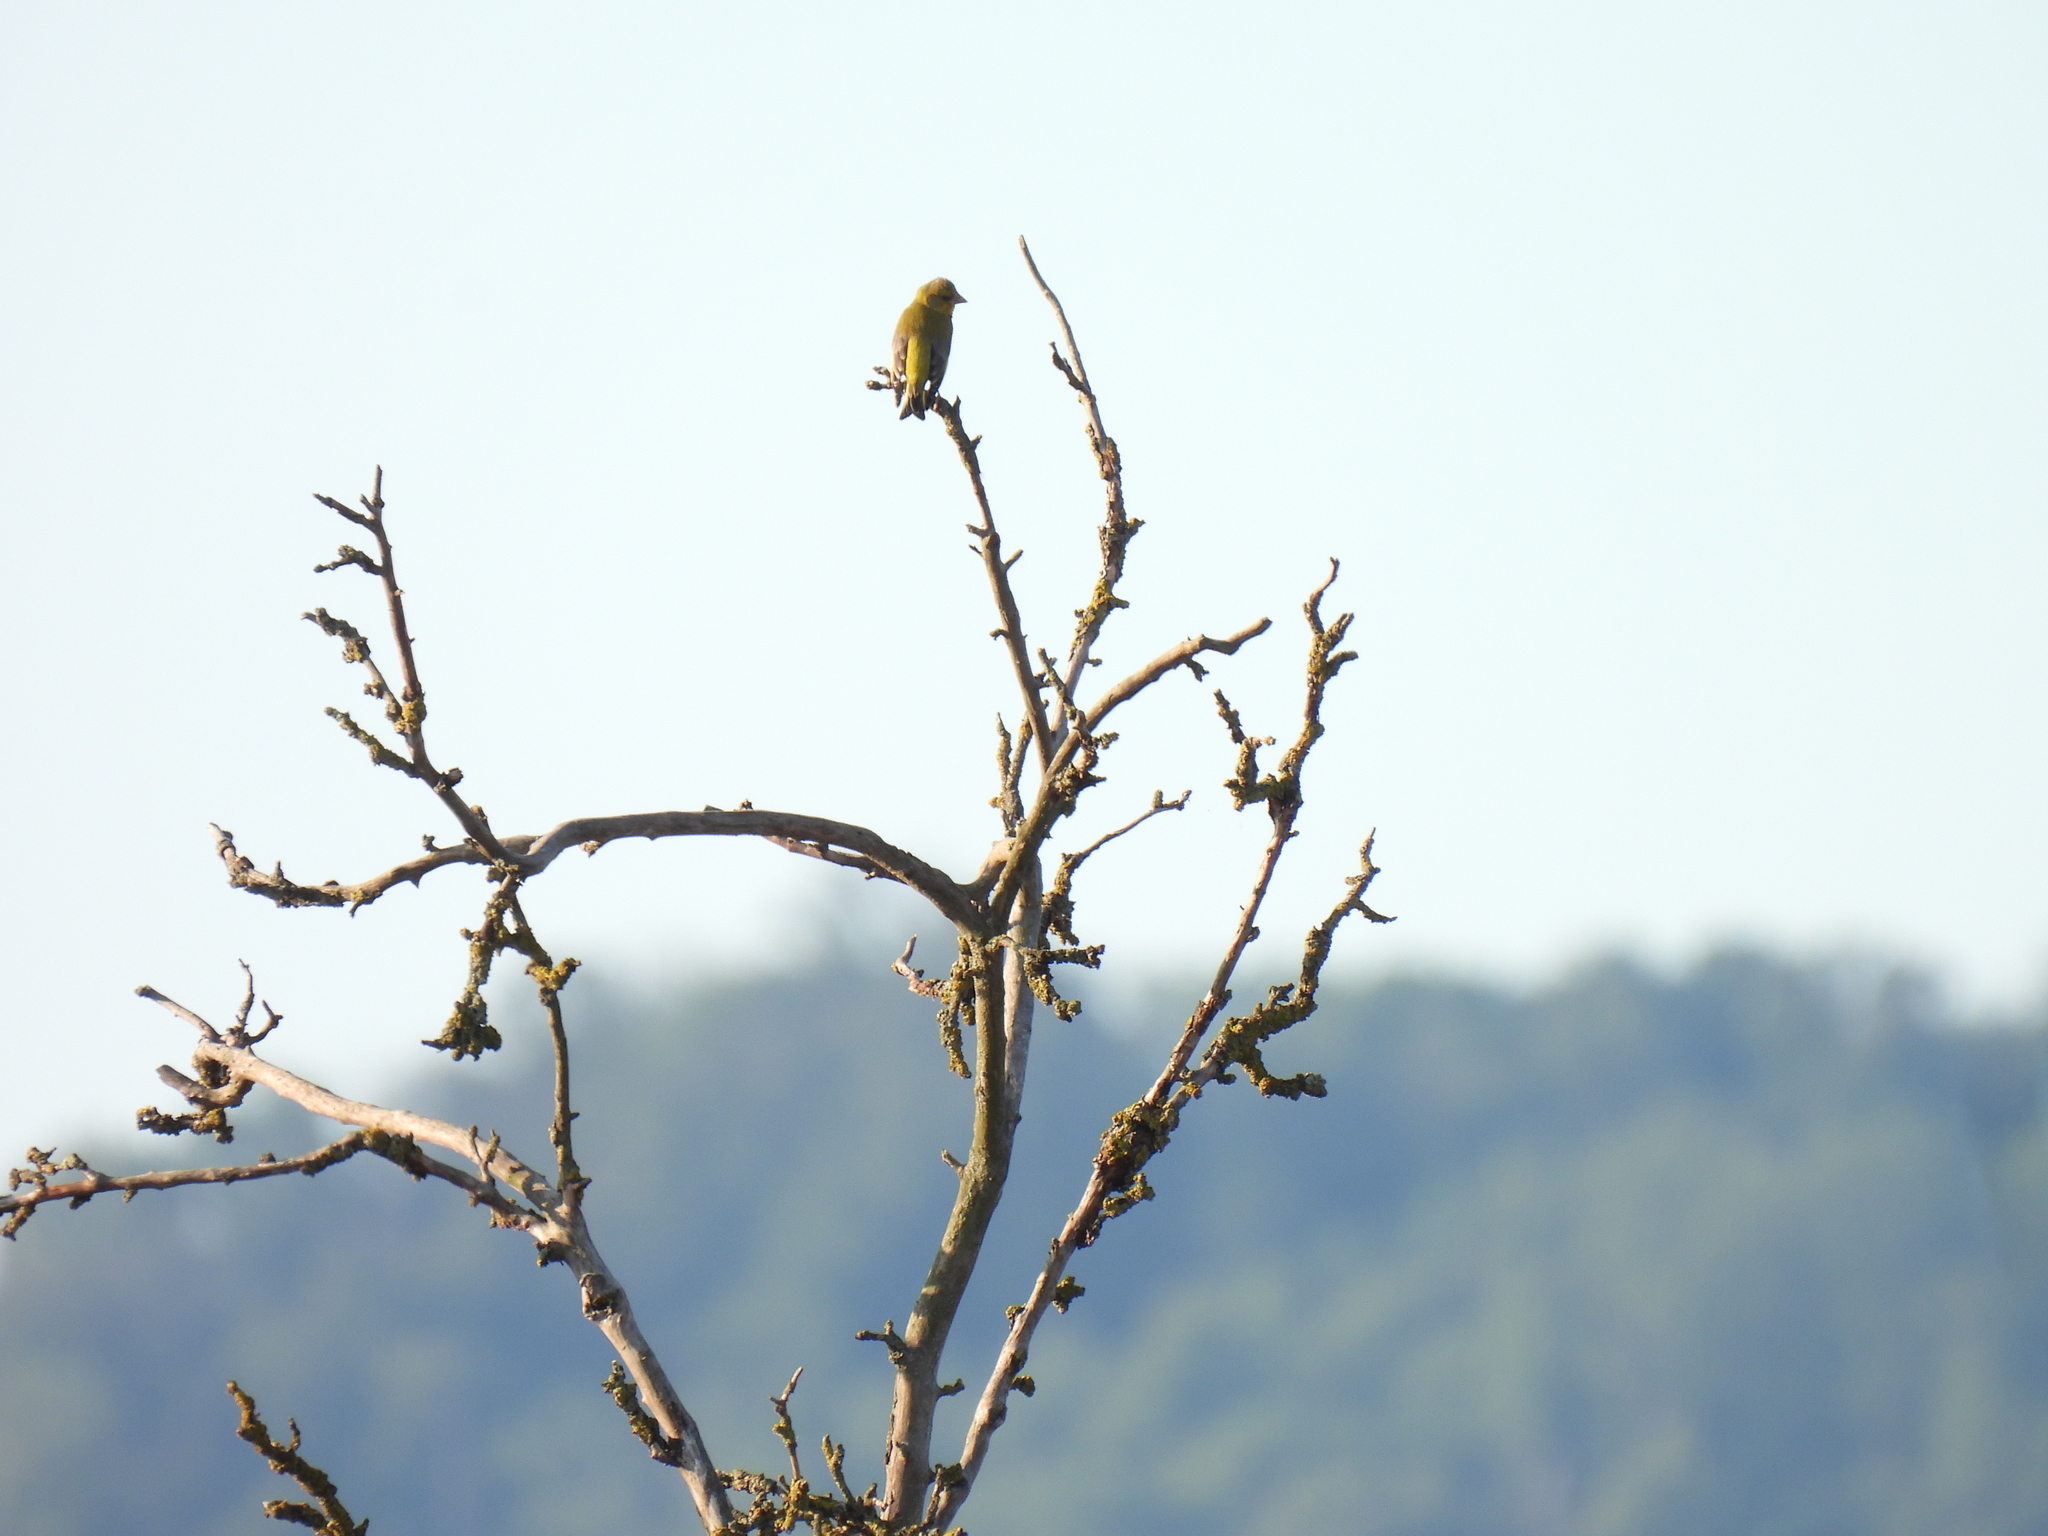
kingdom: Plantae
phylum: Tracheophyta
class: Liliopsida
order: Poales
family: Poaceae
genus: Chloris
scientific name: Chloris chloris
